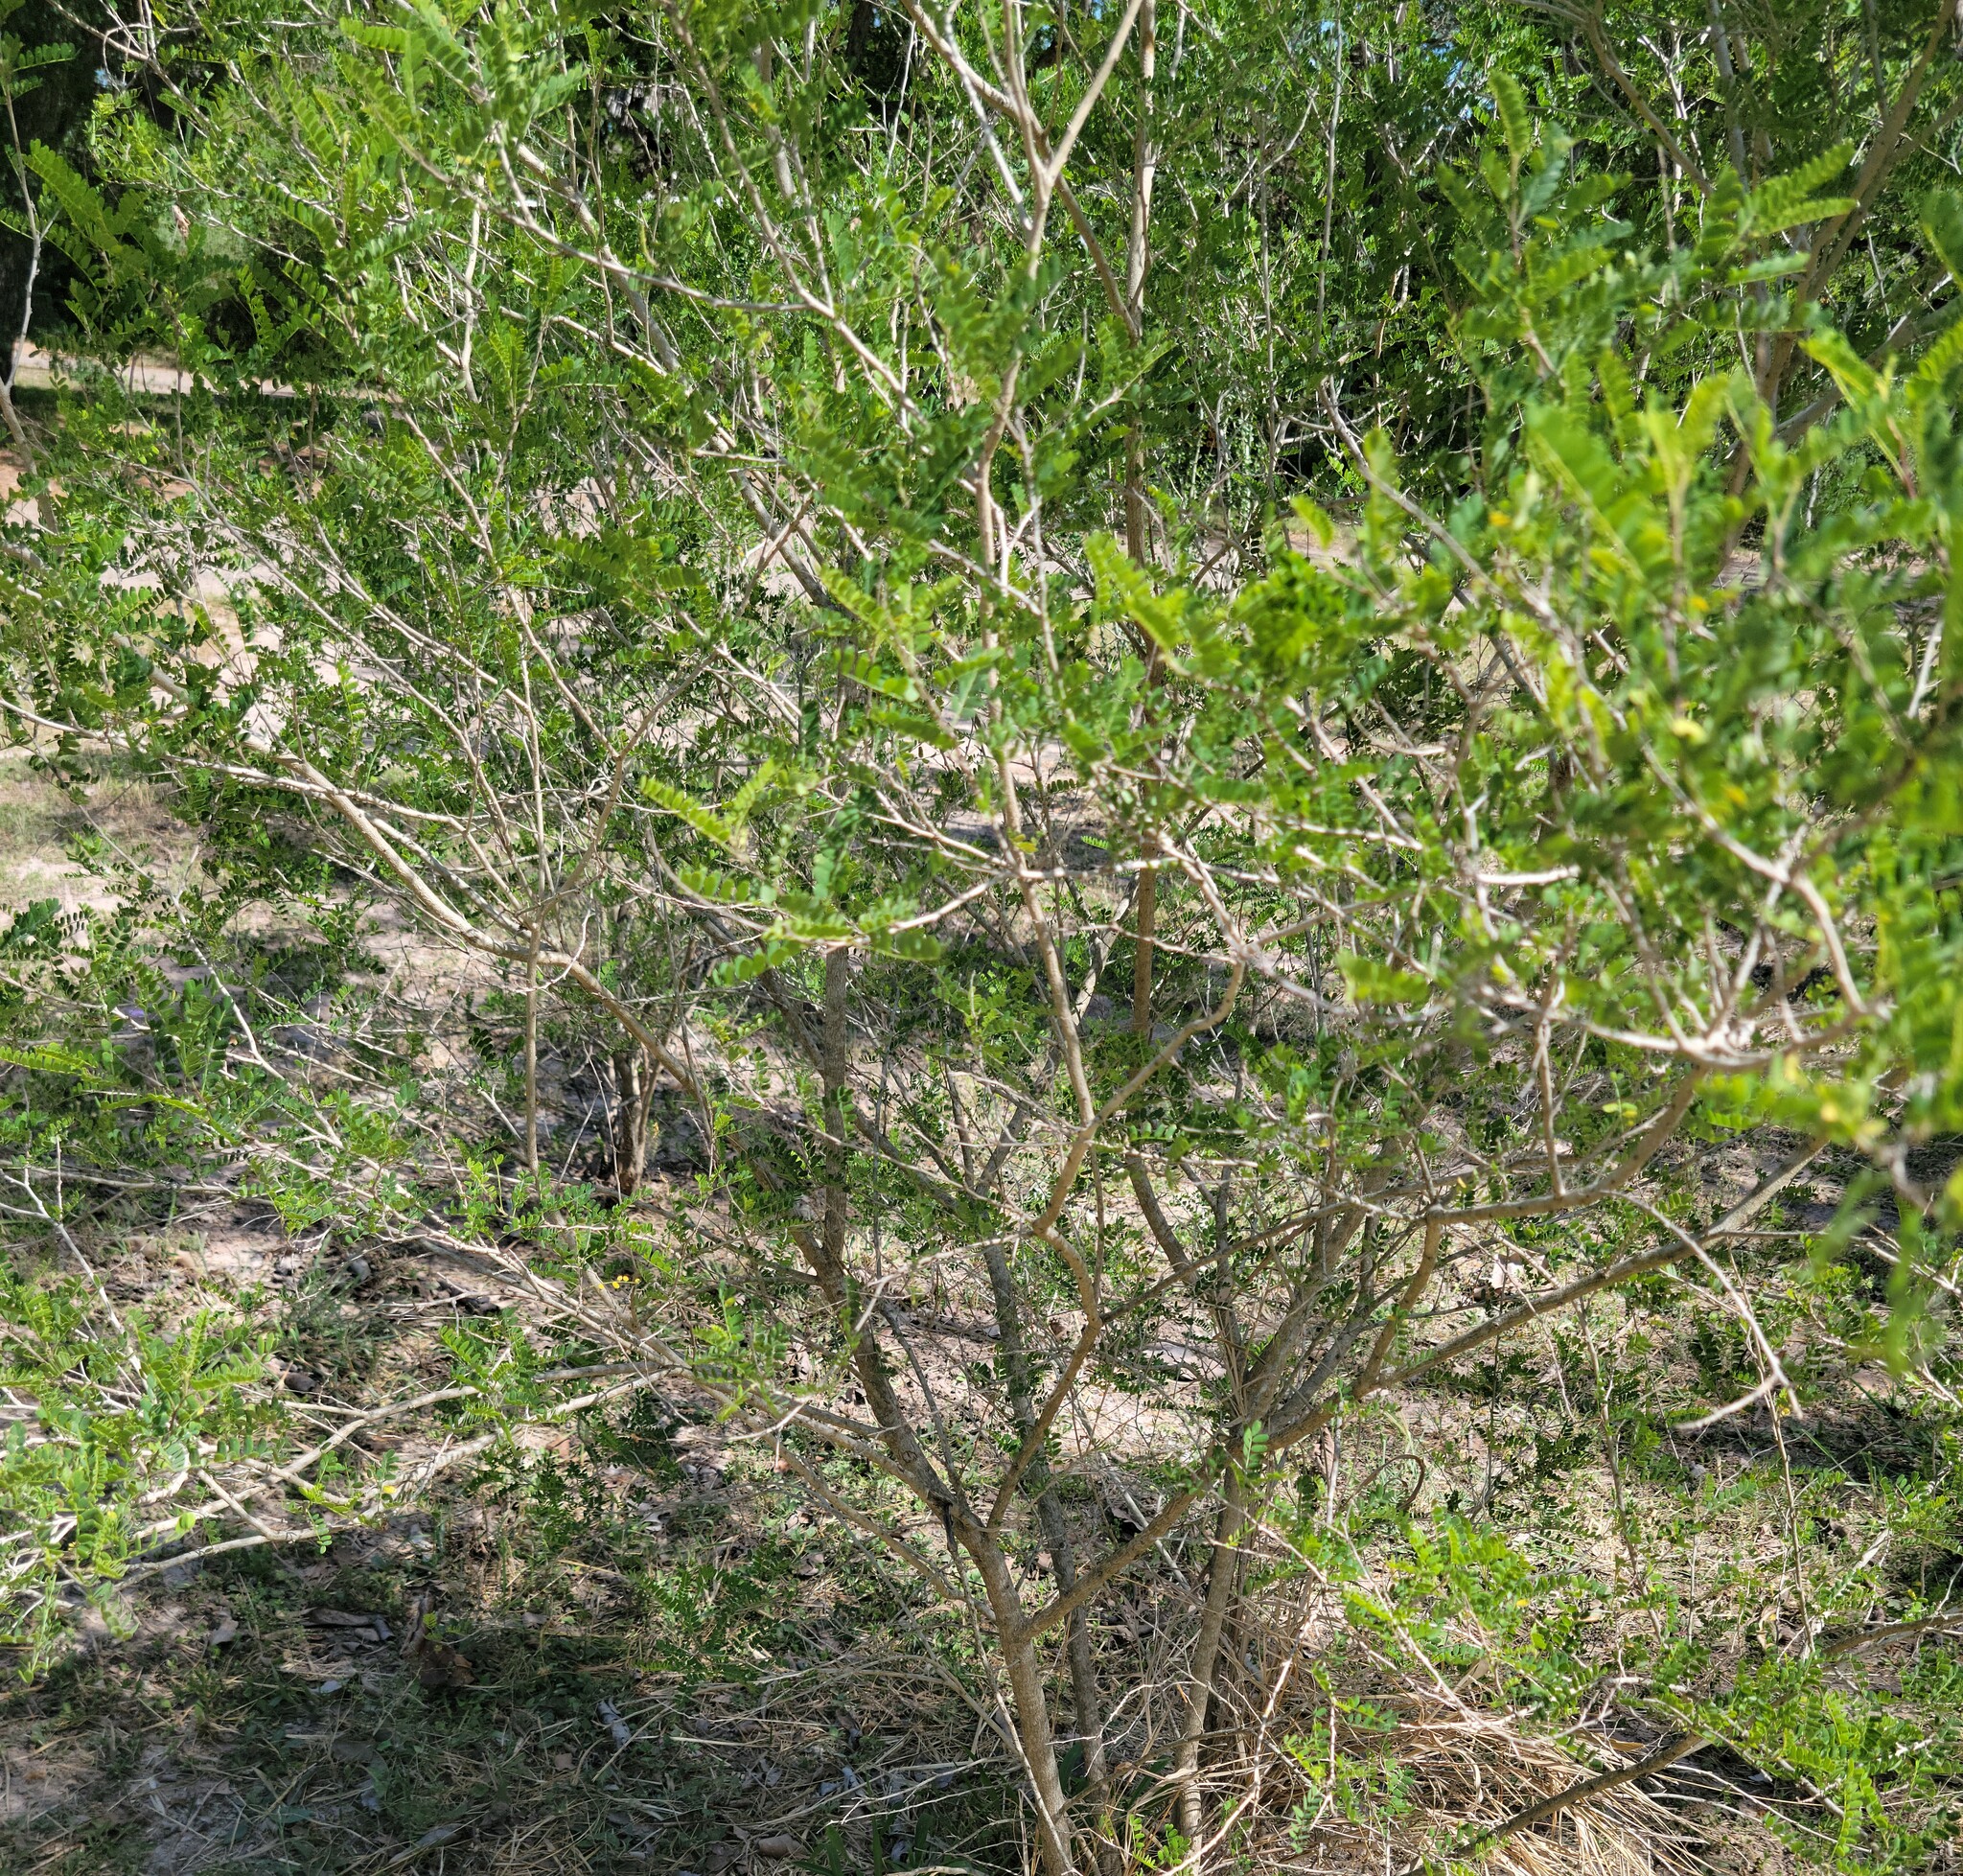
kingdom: Plantae
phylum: Tracheophyta
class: Magnoliopsida
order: Fabales
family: Fabaceae
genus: Eysenhardtia
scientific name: Eysenhardtia texana
